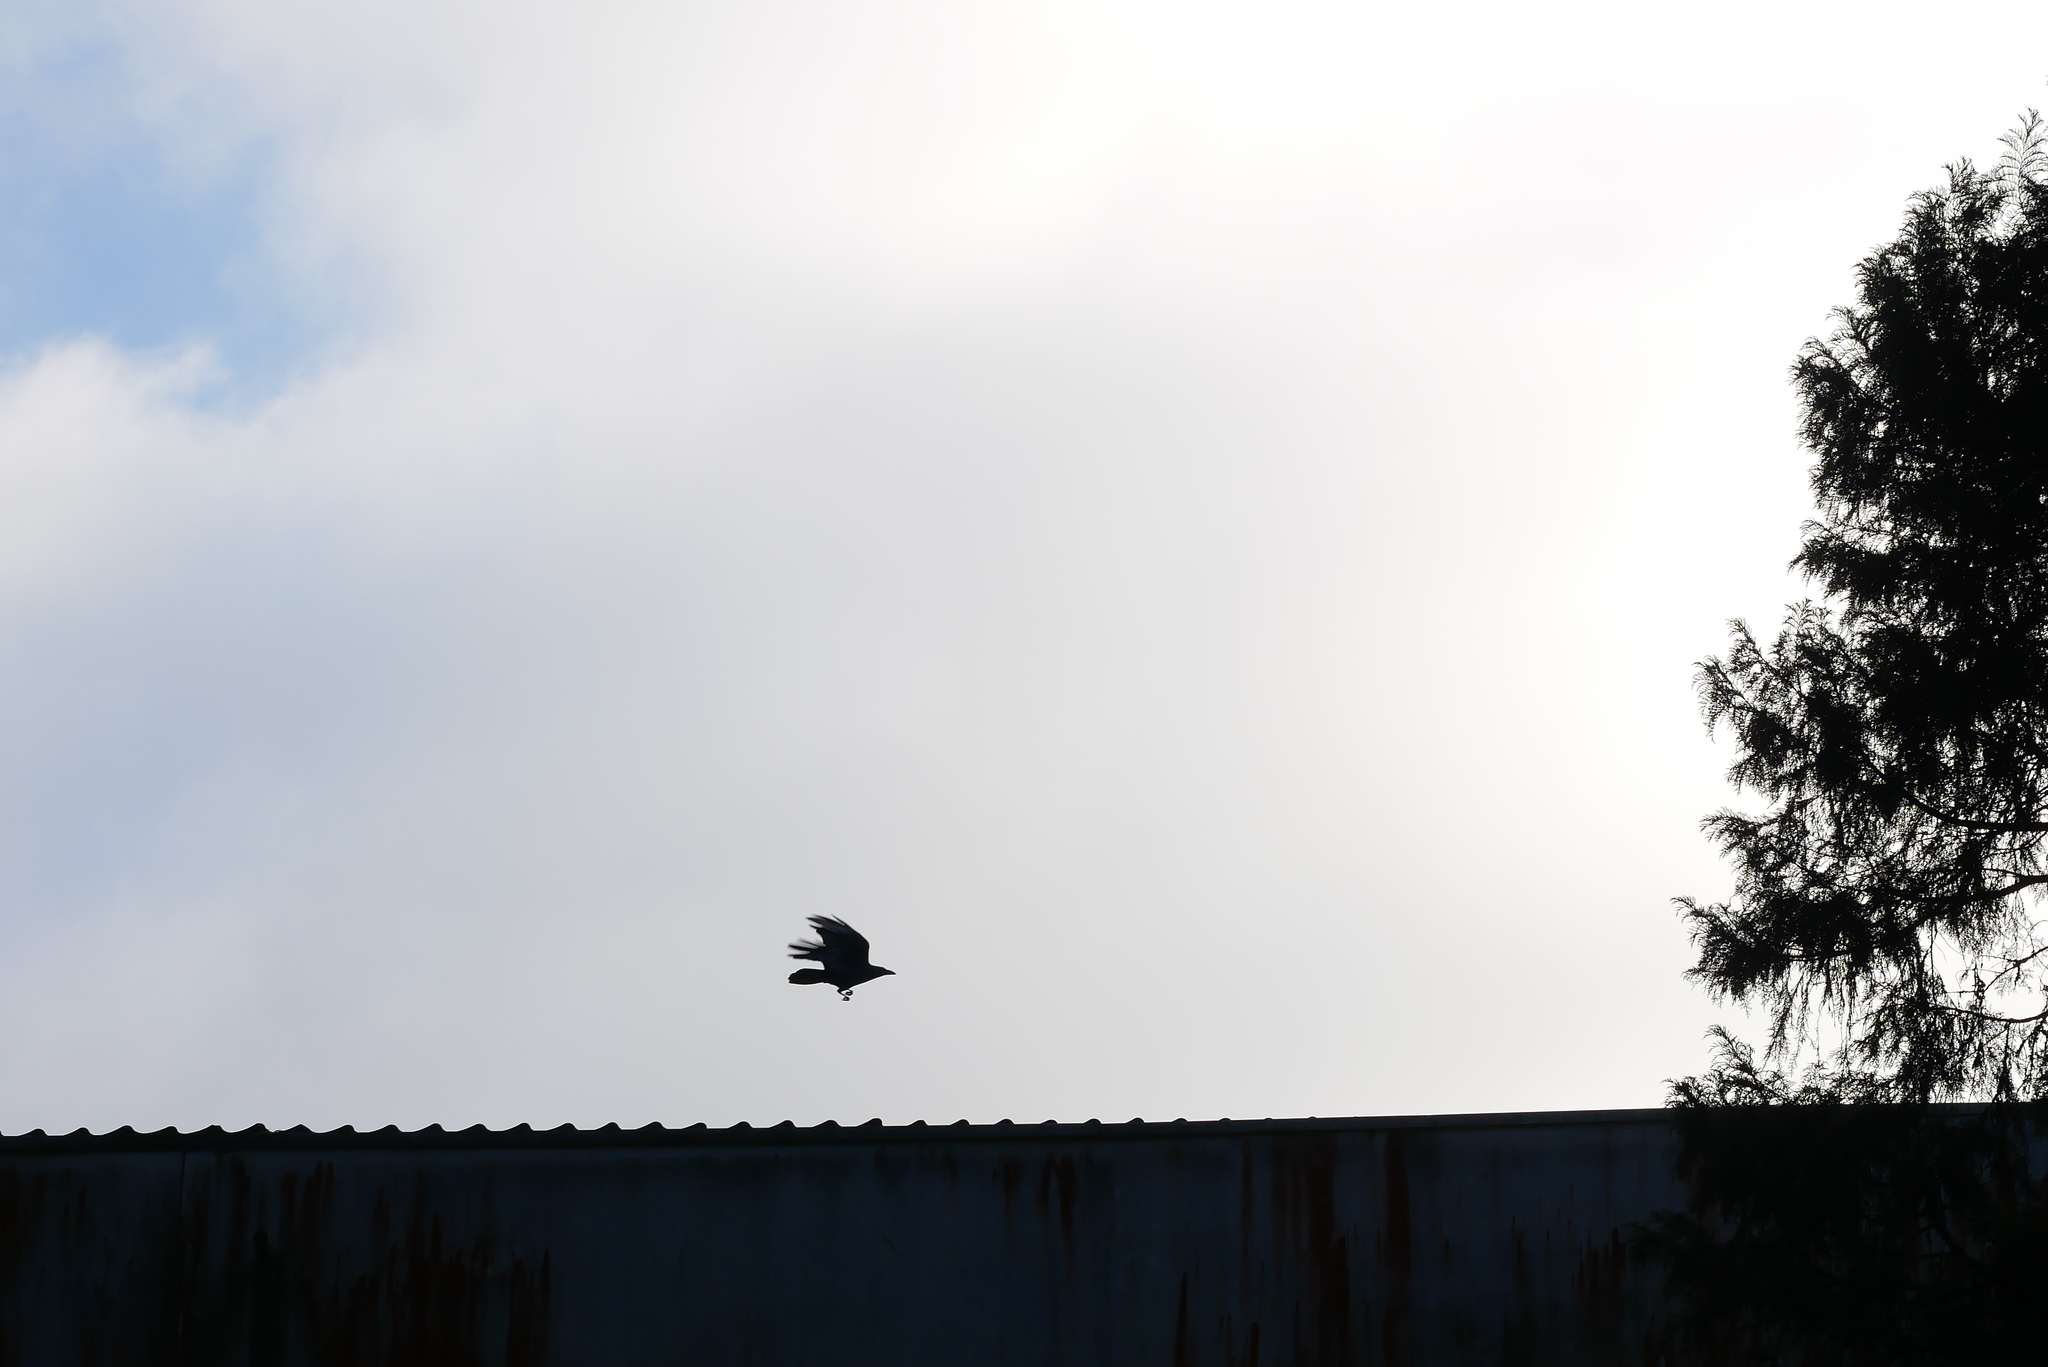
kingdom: Animalia
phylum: Chordata
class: Aves
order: Passeriformes
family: Corvidae
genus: Corvus
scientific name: Corvus macrorhynchos
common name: Large-billed crow
